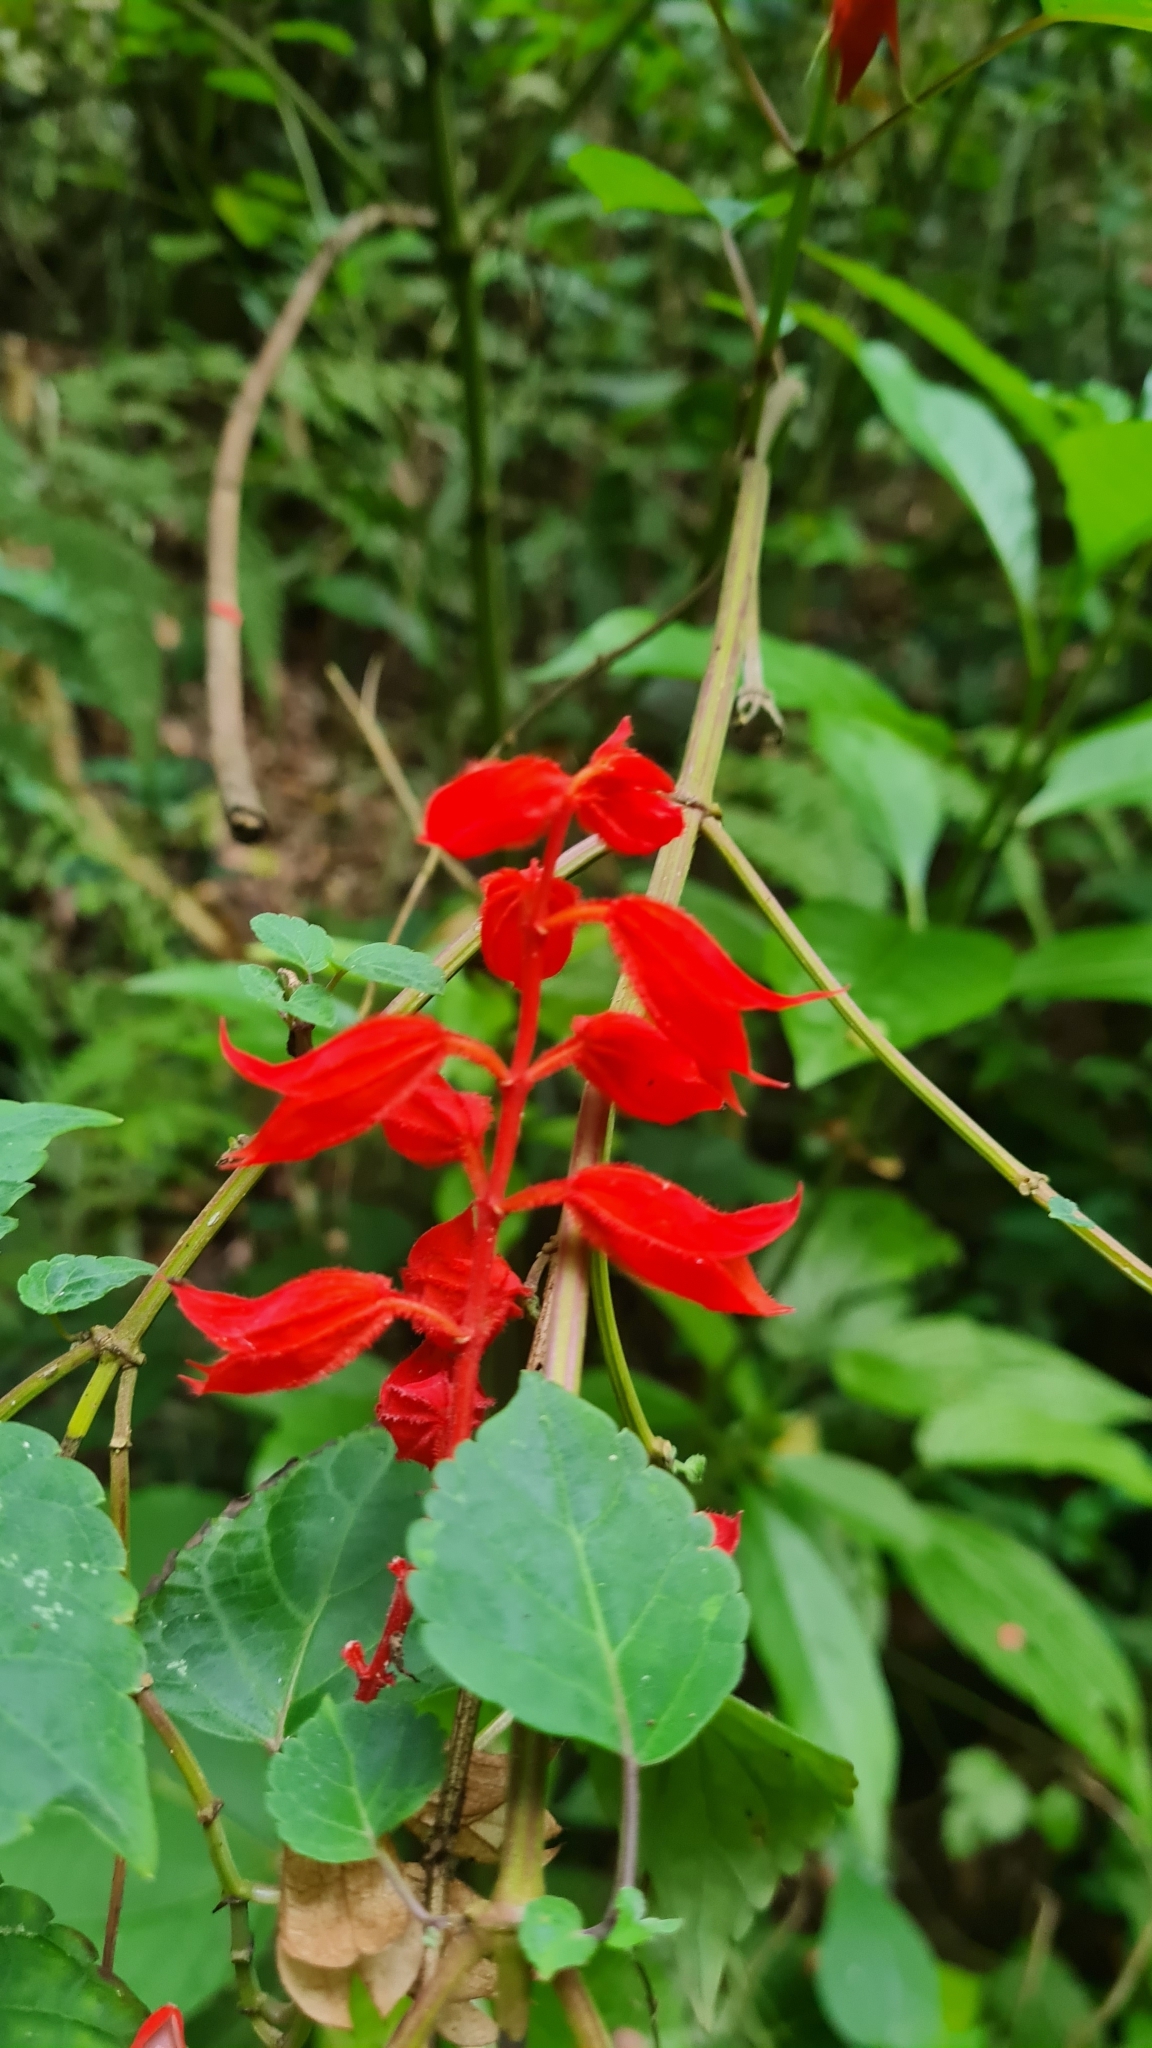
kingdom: Plantae
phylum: Tracheophyta
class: Magnoliopsida
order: Lamiales
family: Lamiaceae
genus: Salvia
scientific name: Salvia splendens
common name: Scarlet sage
